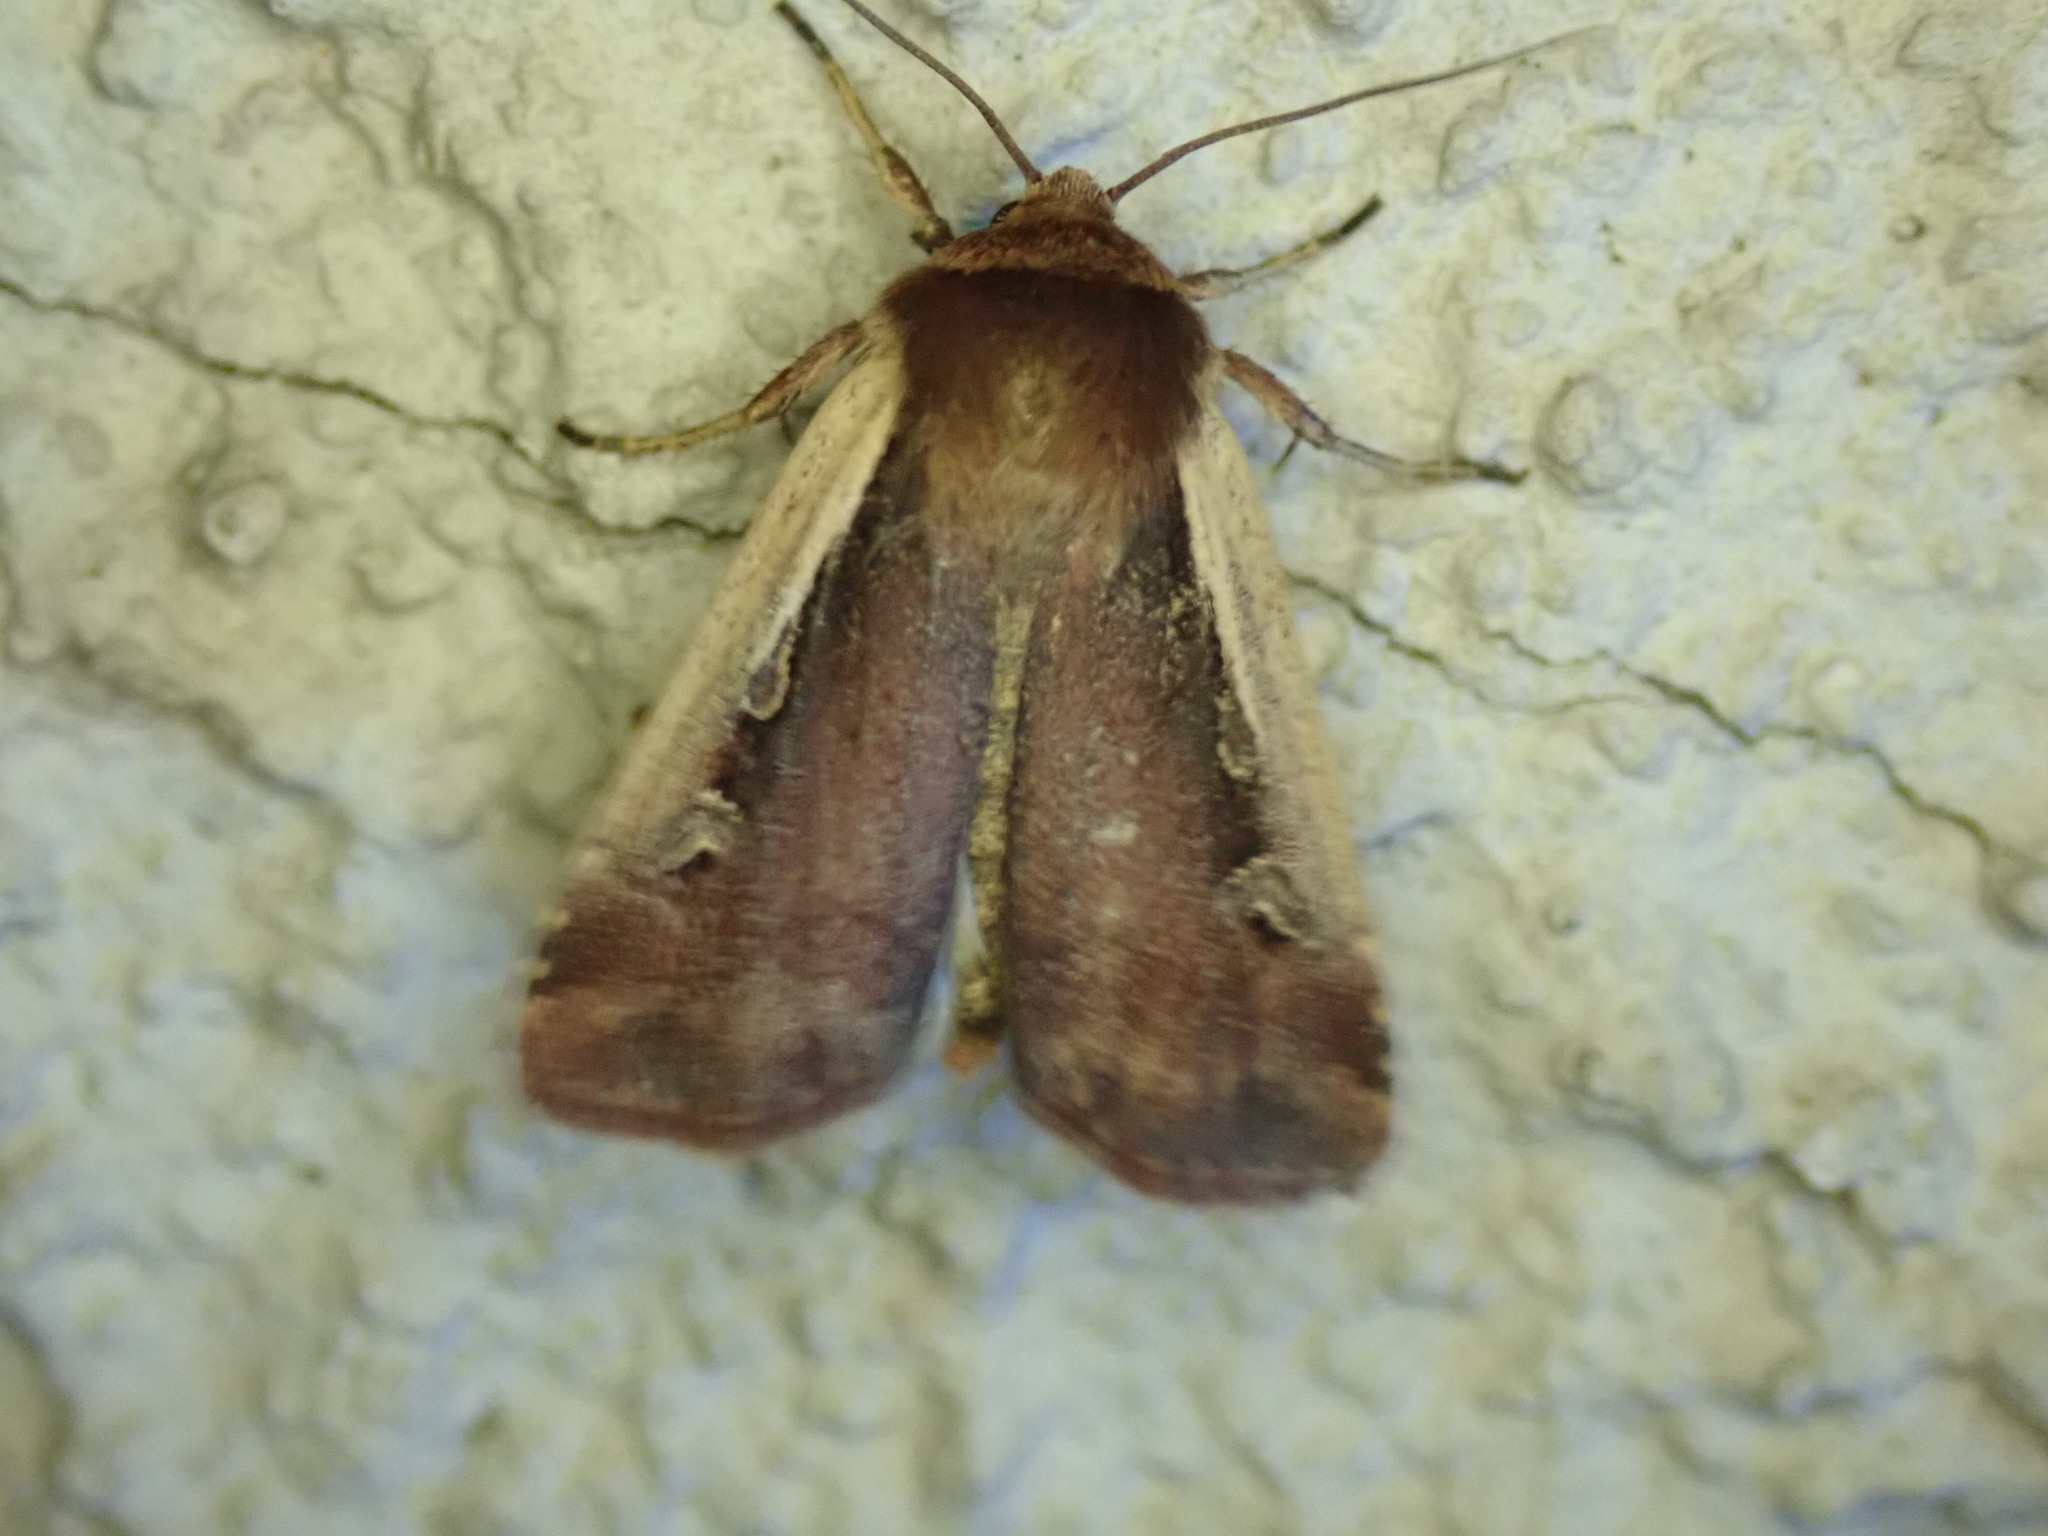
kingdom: Animalia
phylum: Arthropoda
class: Insecta
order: Lepidoptera
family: Noctuidae
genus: Ochropleura
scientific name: Ochropleura plecta
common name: Flame shoulder
